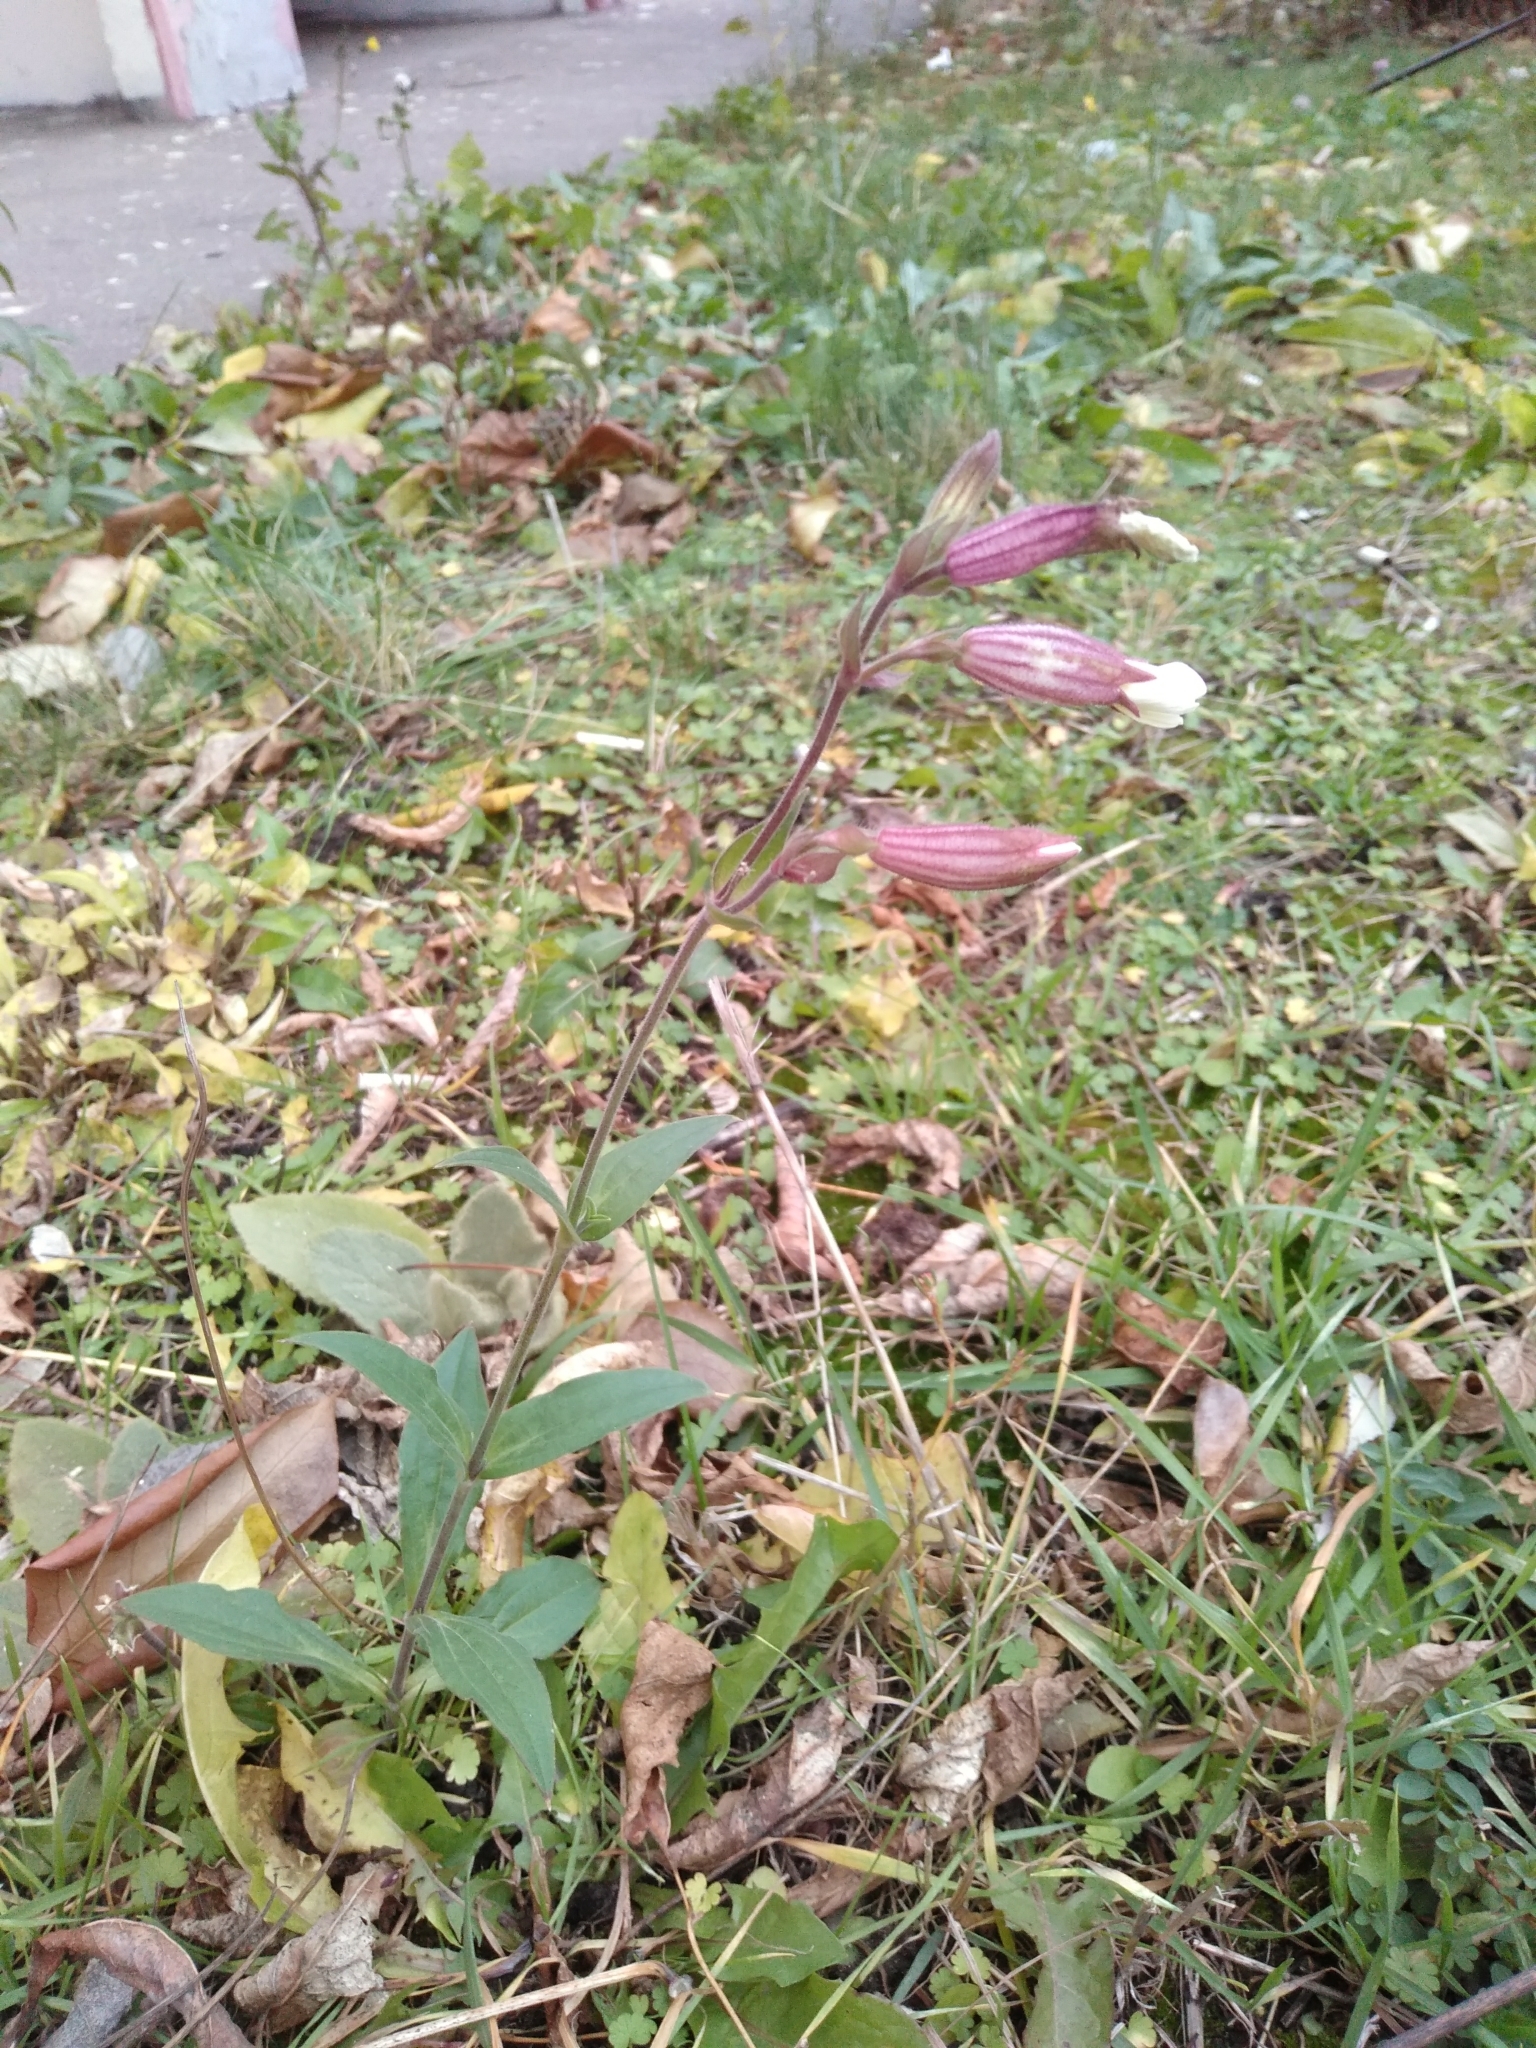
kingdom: Plantae
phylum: Tracheophyta
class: Magnoliopsida
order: Caryophyllales
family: Caryophyllaceae
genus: Silene
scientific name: Silene latifolia
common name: White campion
